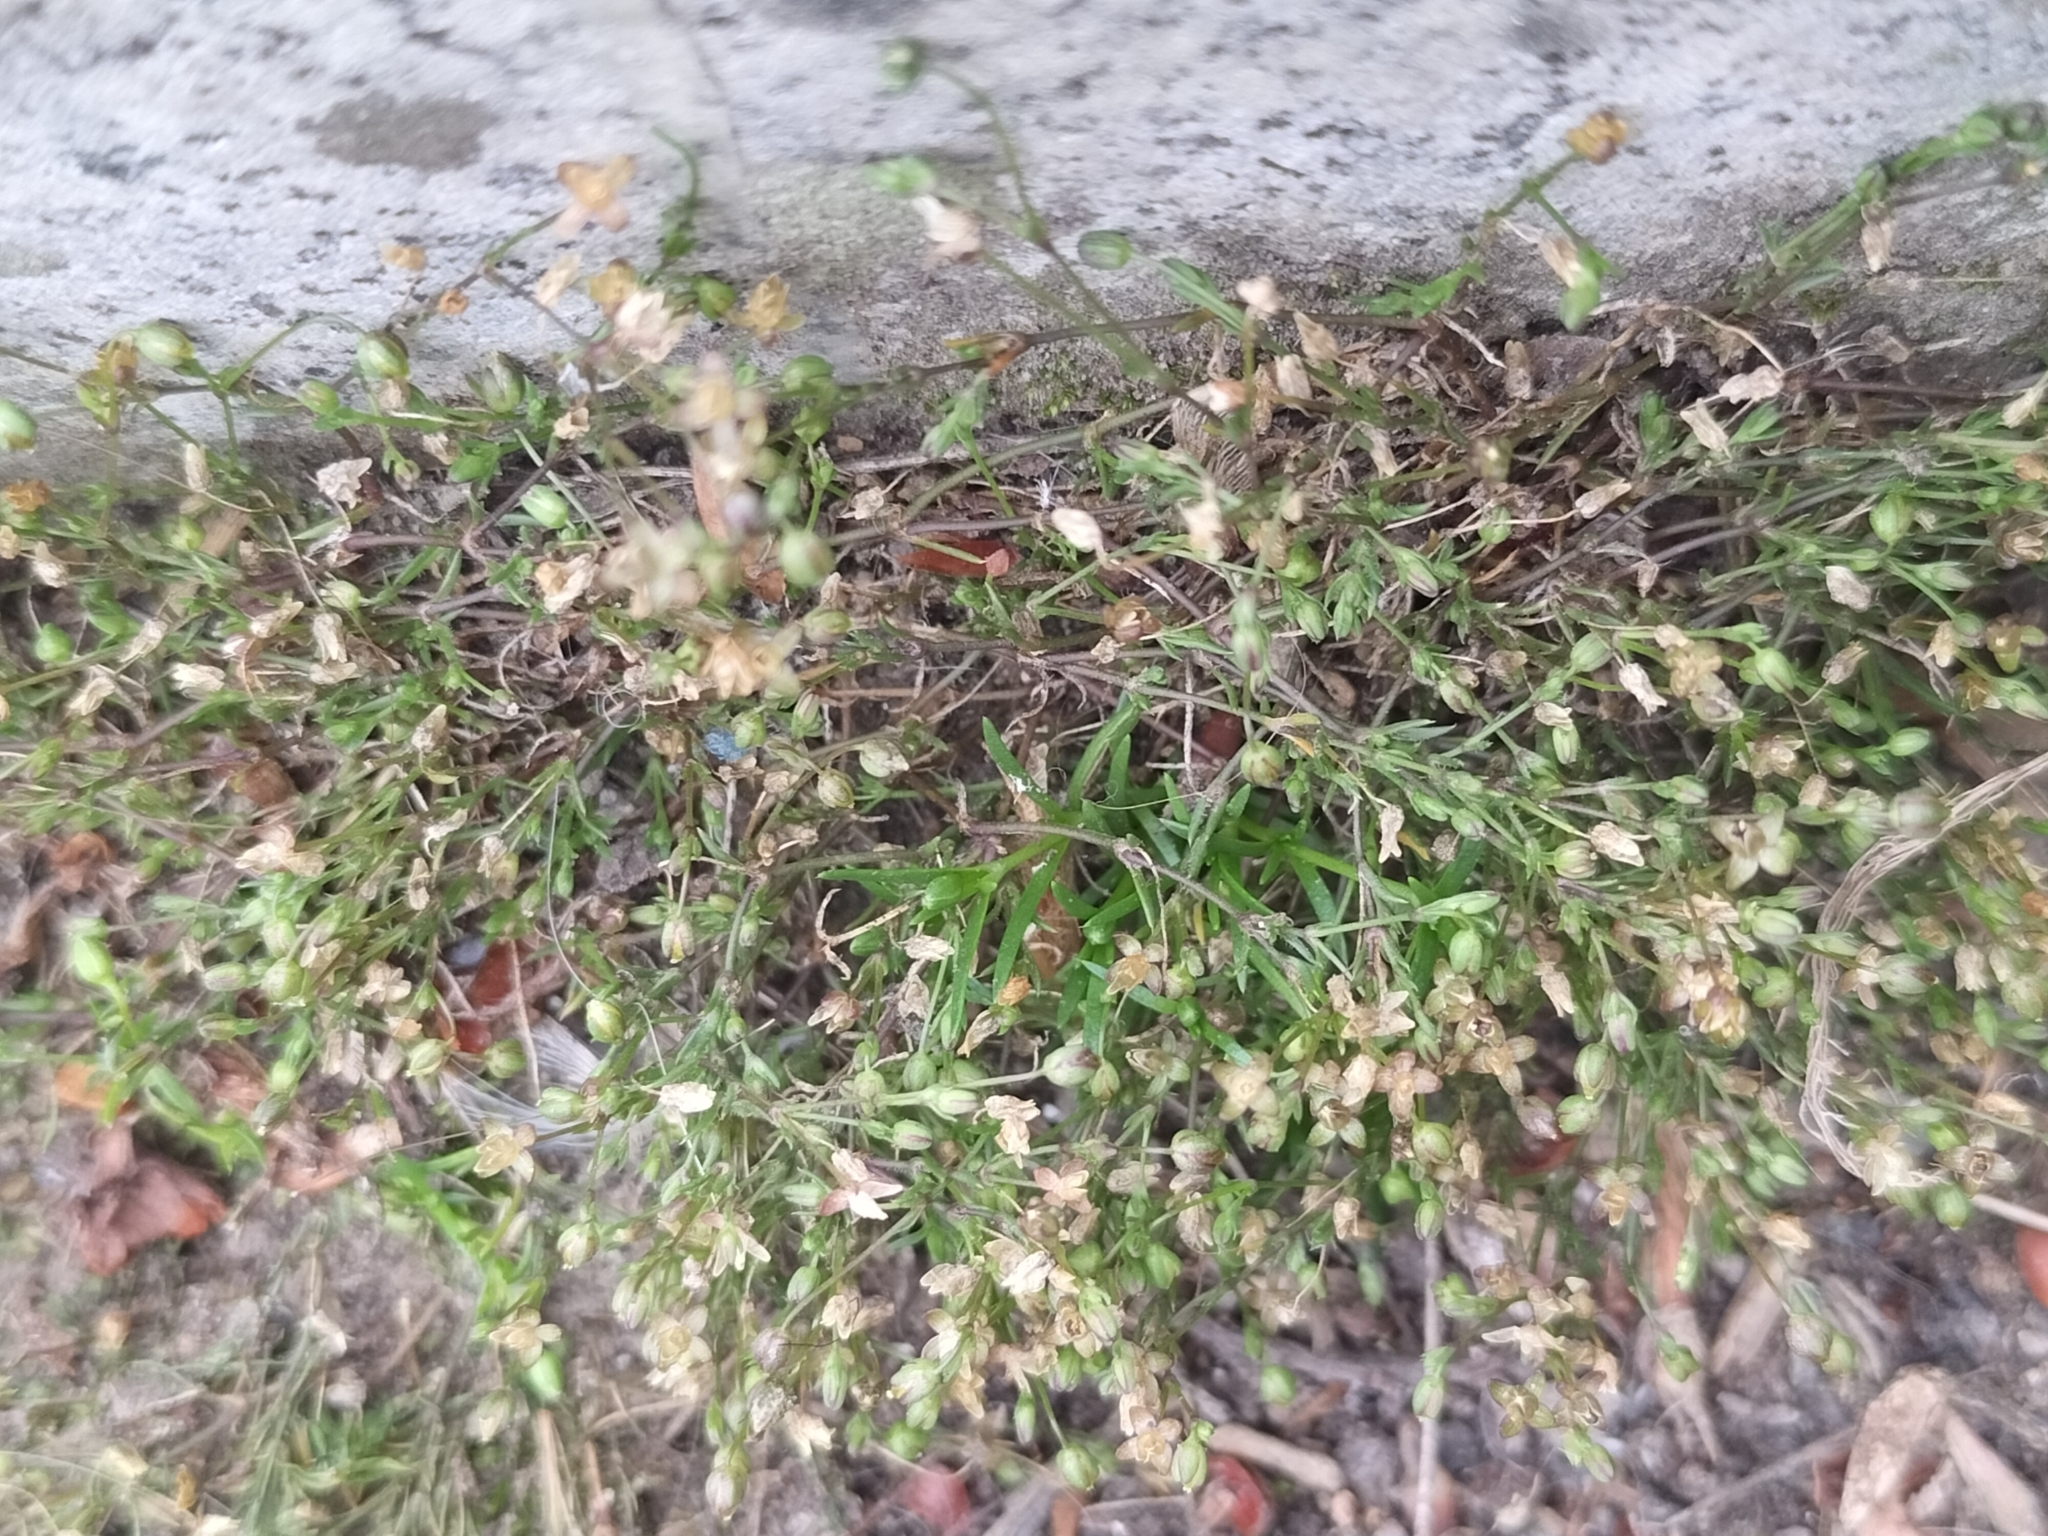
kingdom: Plantae
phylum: Tracheophyta
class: Magnoliopsida
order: Caryophyllales
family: Caryophyllaceae
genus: Sagina
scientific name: Sagina apetala
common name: Annual pearlwort
